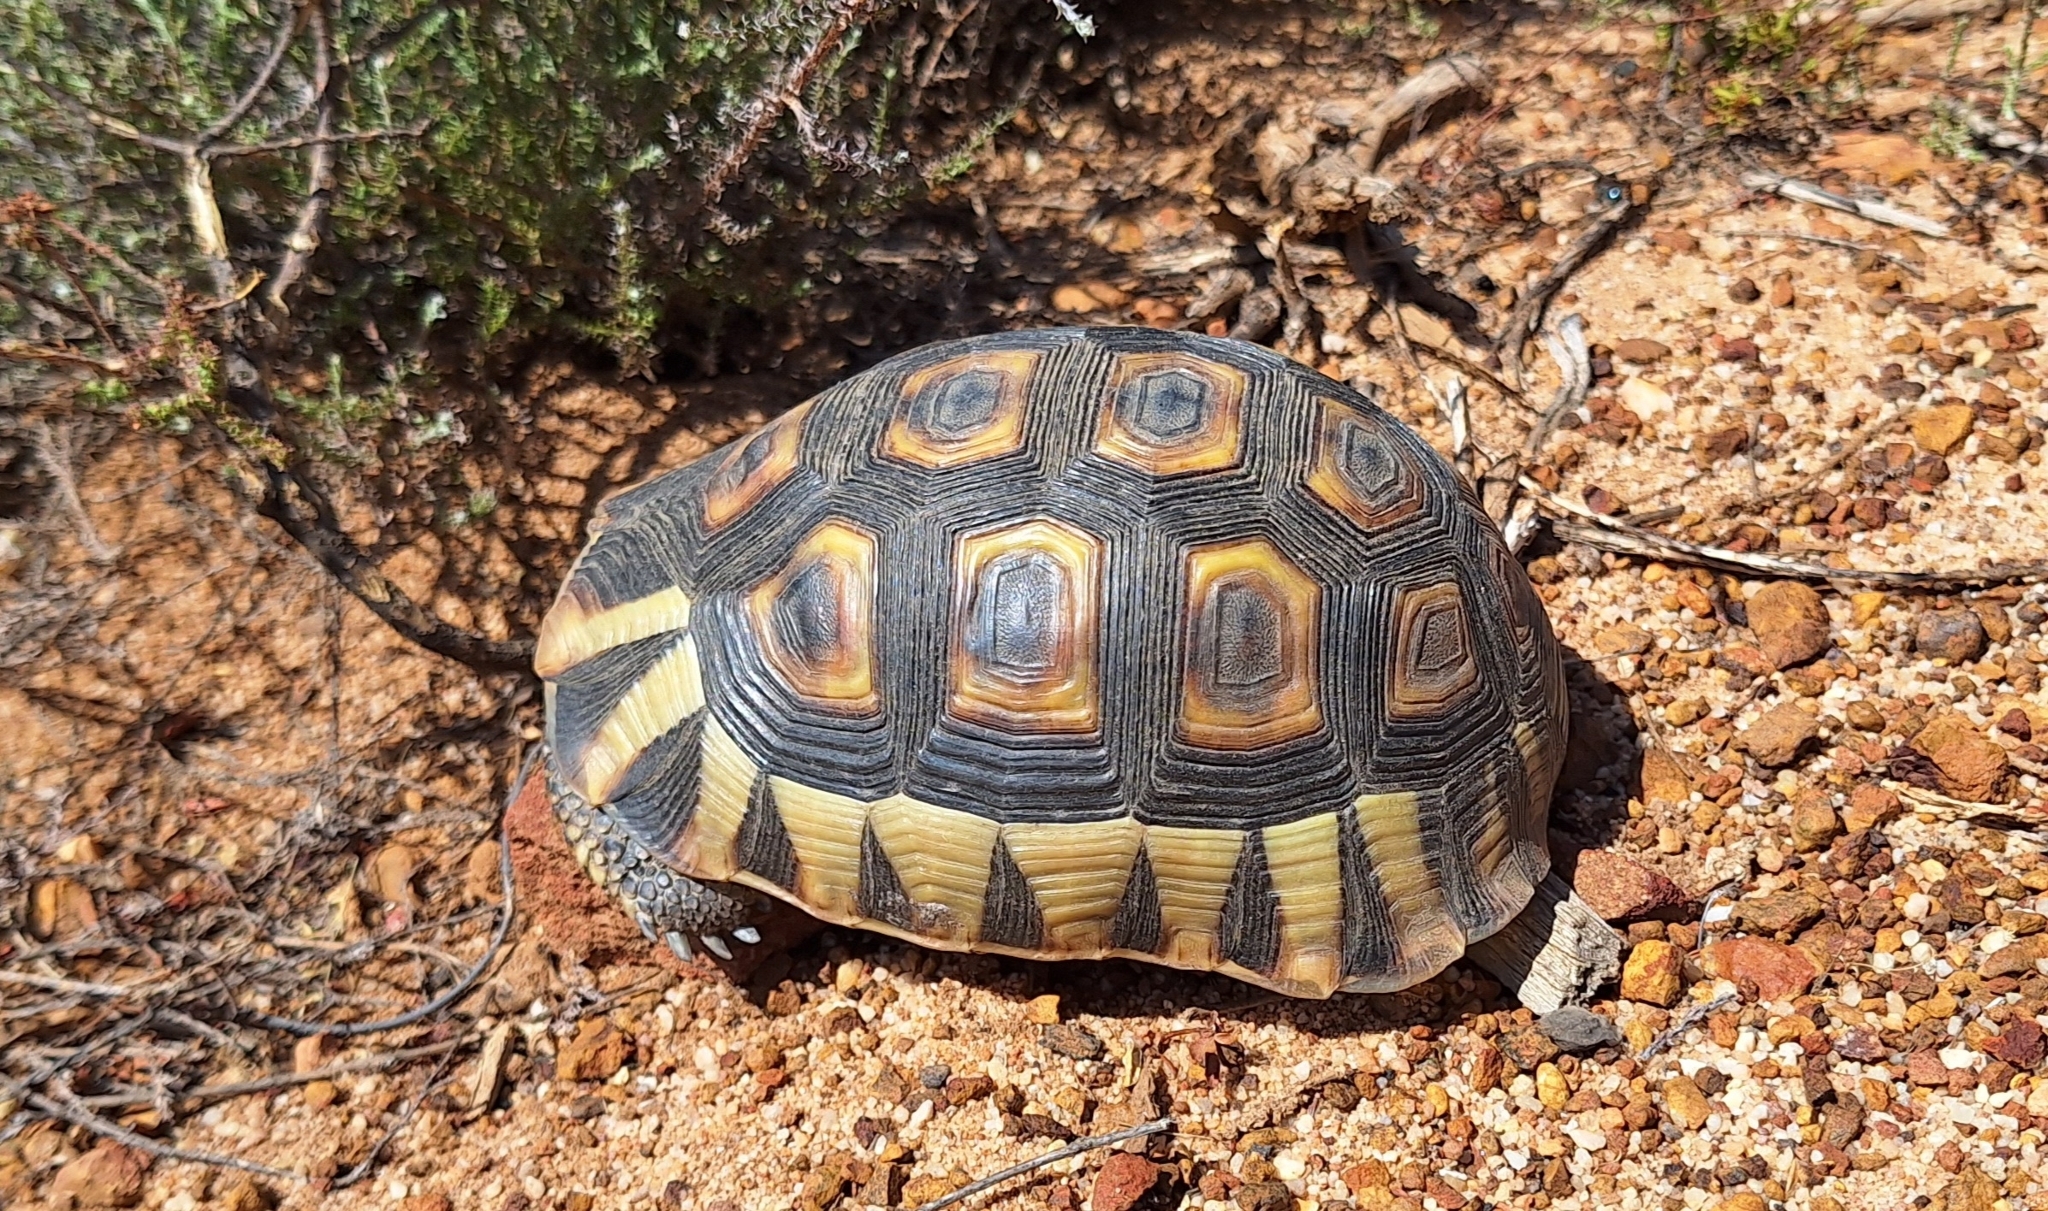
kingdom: Animalia
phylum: Chordata
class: Testudines
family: Testudinidae
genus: Chersina
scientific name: Chersina angulata
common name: South african bowsprit tortoise
